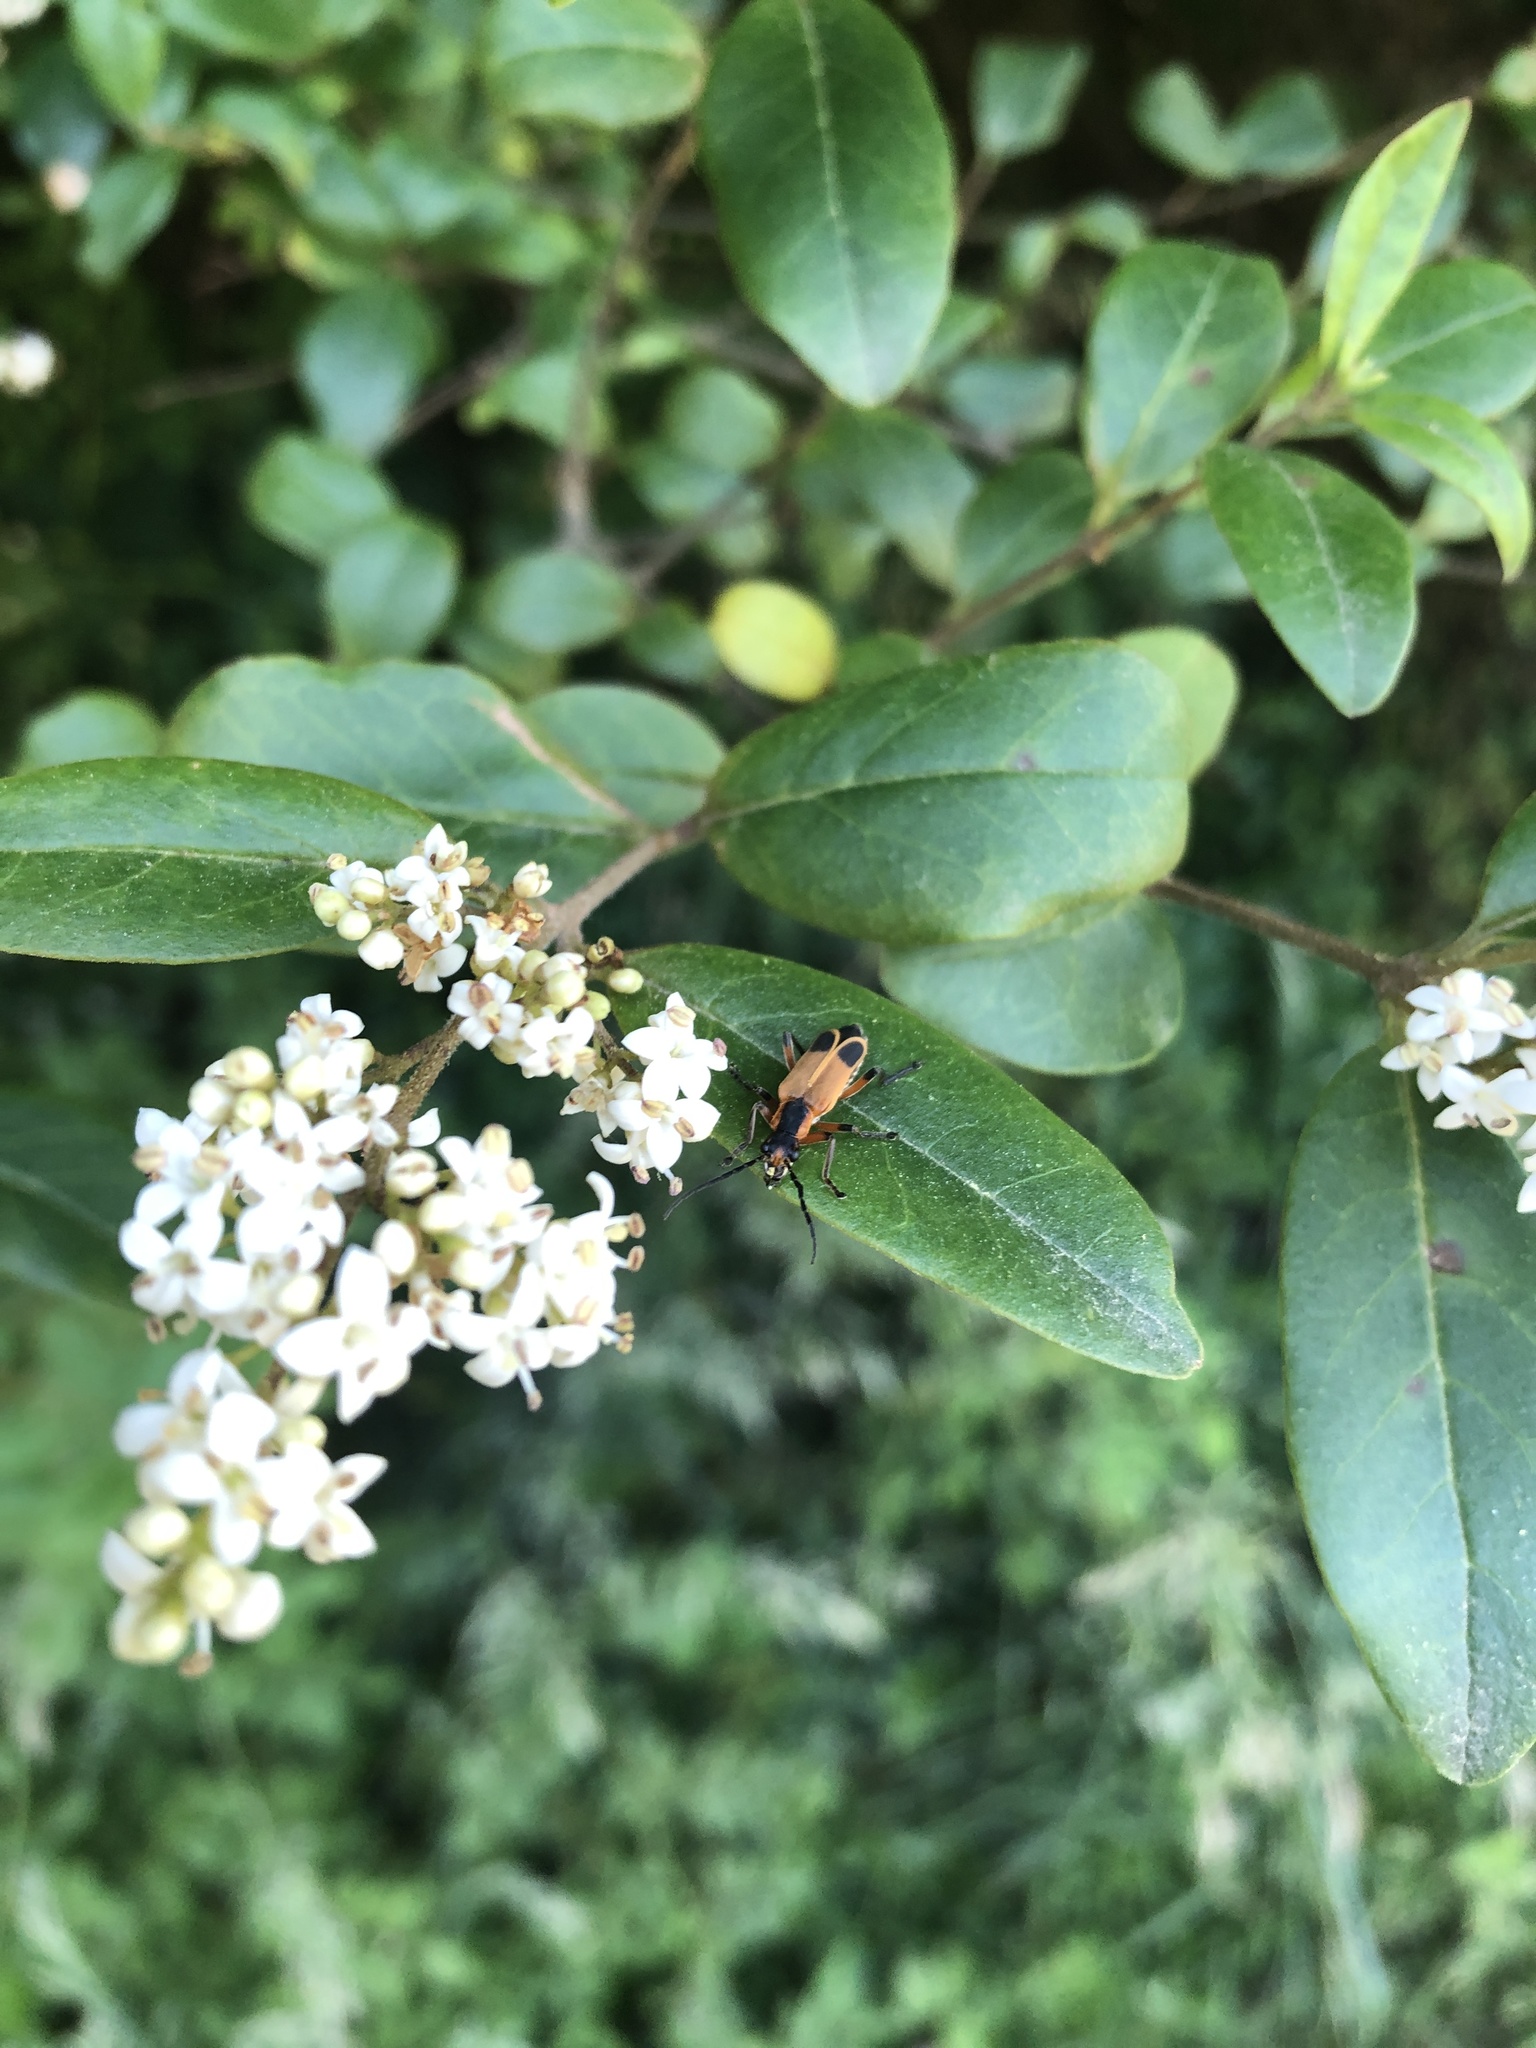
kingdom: Animalia
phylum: Arthropoda
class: Insecta
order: Coleoptera
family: Cantharidae
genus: Chauliognathus
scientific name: Chauliognathus marginatus
